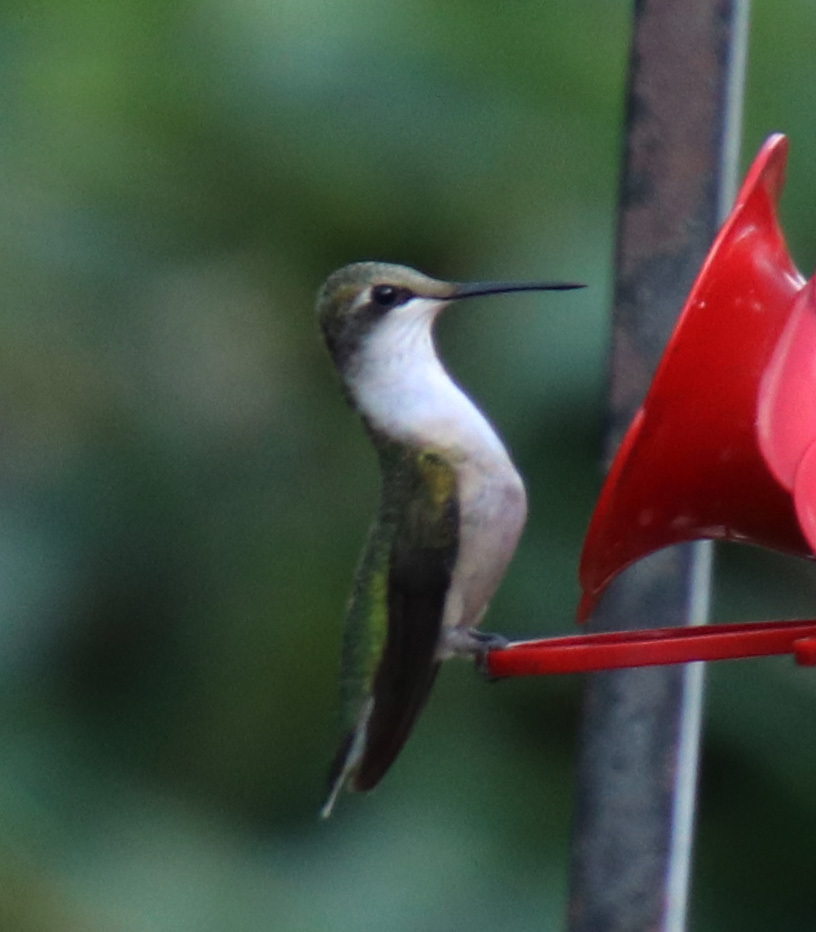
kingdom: Animalia
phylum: Chordata
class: Aves
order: Apodiformes
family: Trochilidae
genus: Archilochus
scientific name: Archilochus colubris
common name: Ruby-throated hummingbird
